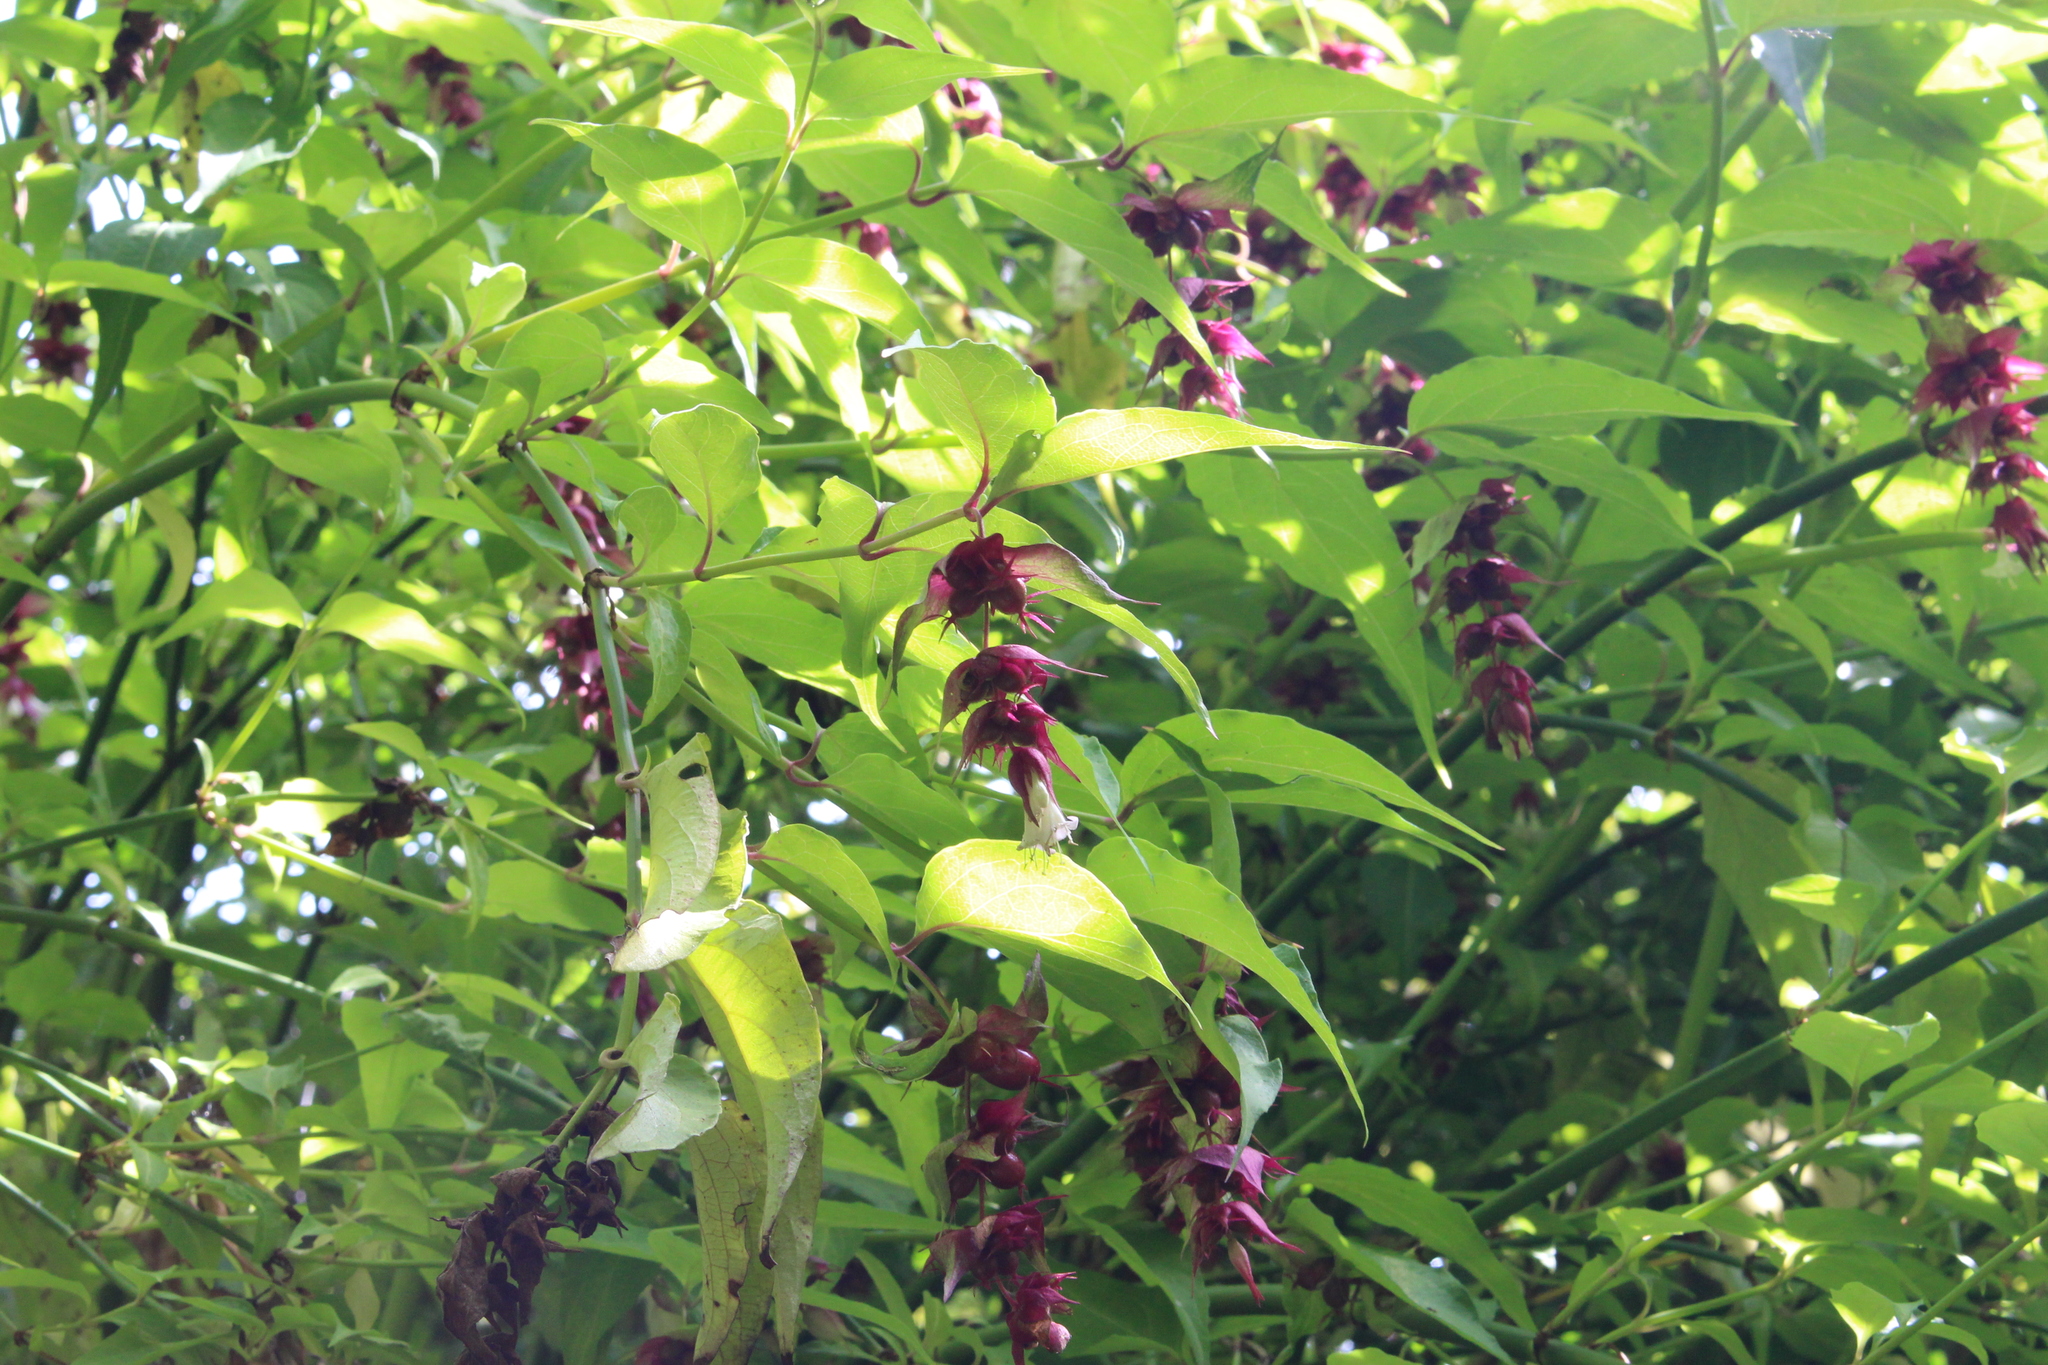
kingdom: Plantae
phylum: Tracheophyta
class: Magnoliopsida
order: Dipsacales
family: Caprifoliaceae
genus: Leycesteria
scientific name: Leycesteria formosa
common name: Himalayan honeysuckle
